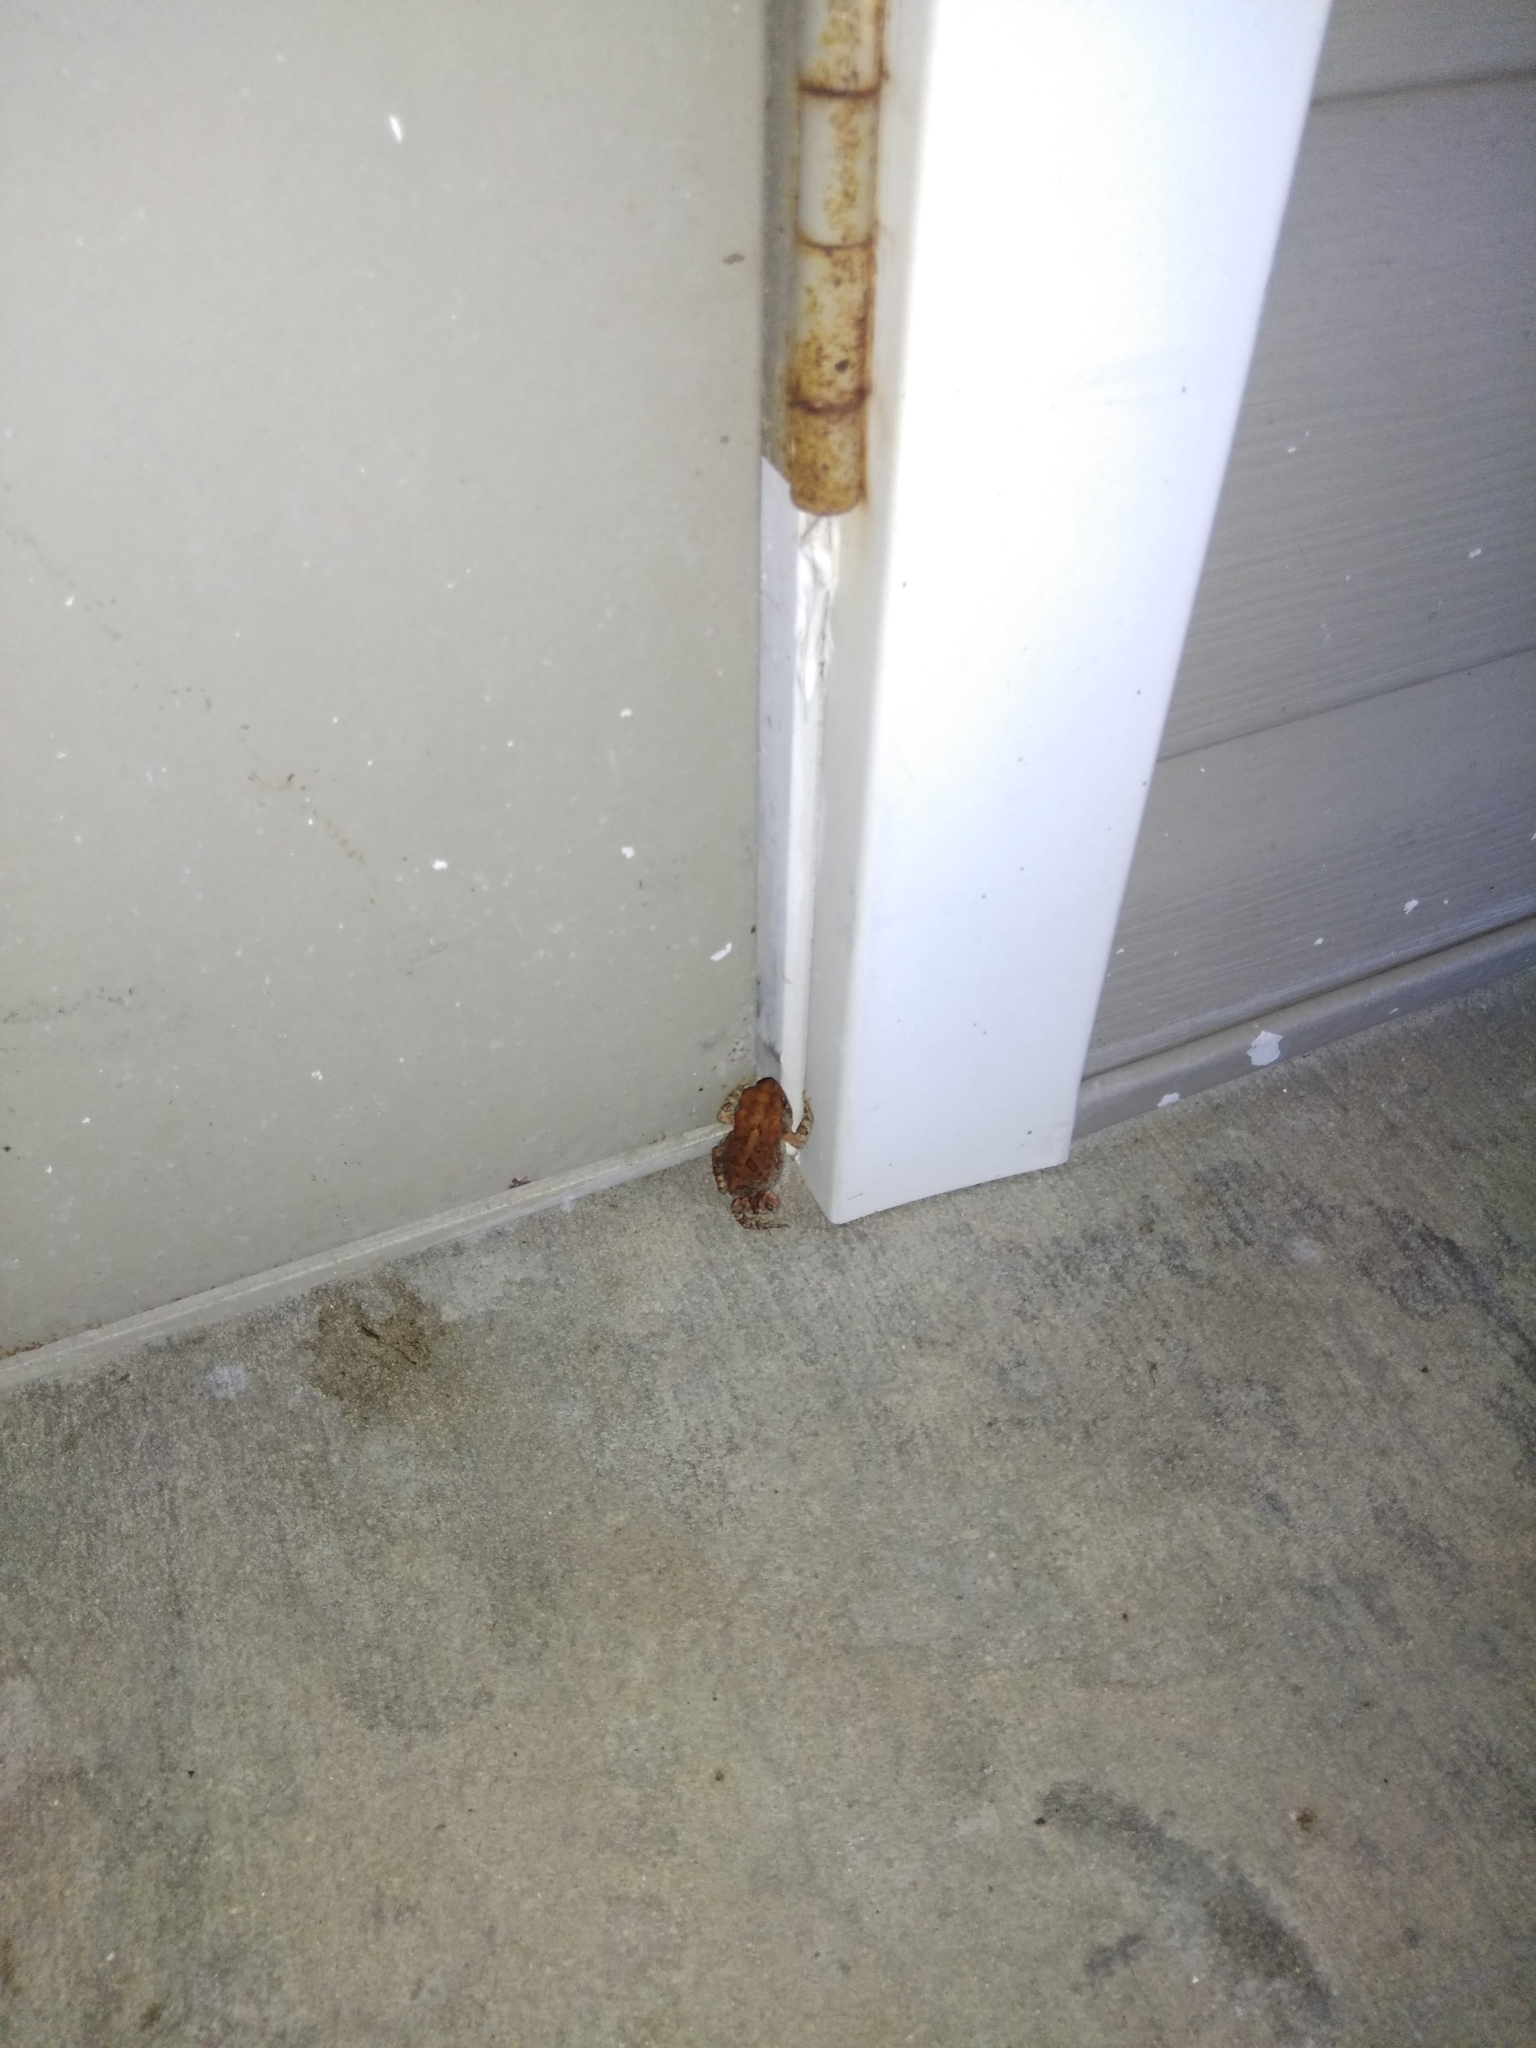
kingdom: Animalia
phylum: Chordata
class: Amphibia
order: Anura
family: Bufonidae
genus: Anaxyrus
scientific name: Anaxyrus terrestris
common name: Southern toad
